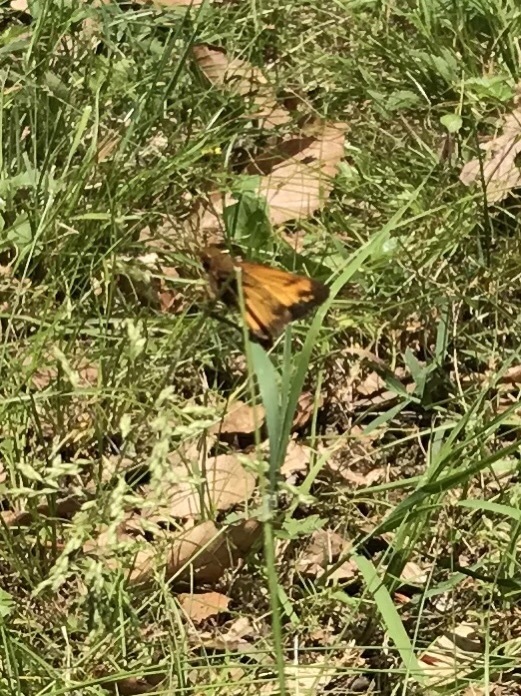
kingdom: Animalia
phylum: Arthropoda
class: Insecta
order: Lepidoptera
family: Hesperiidae
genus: Lon
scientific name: Lon zabulon
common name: Zabulon skipper
